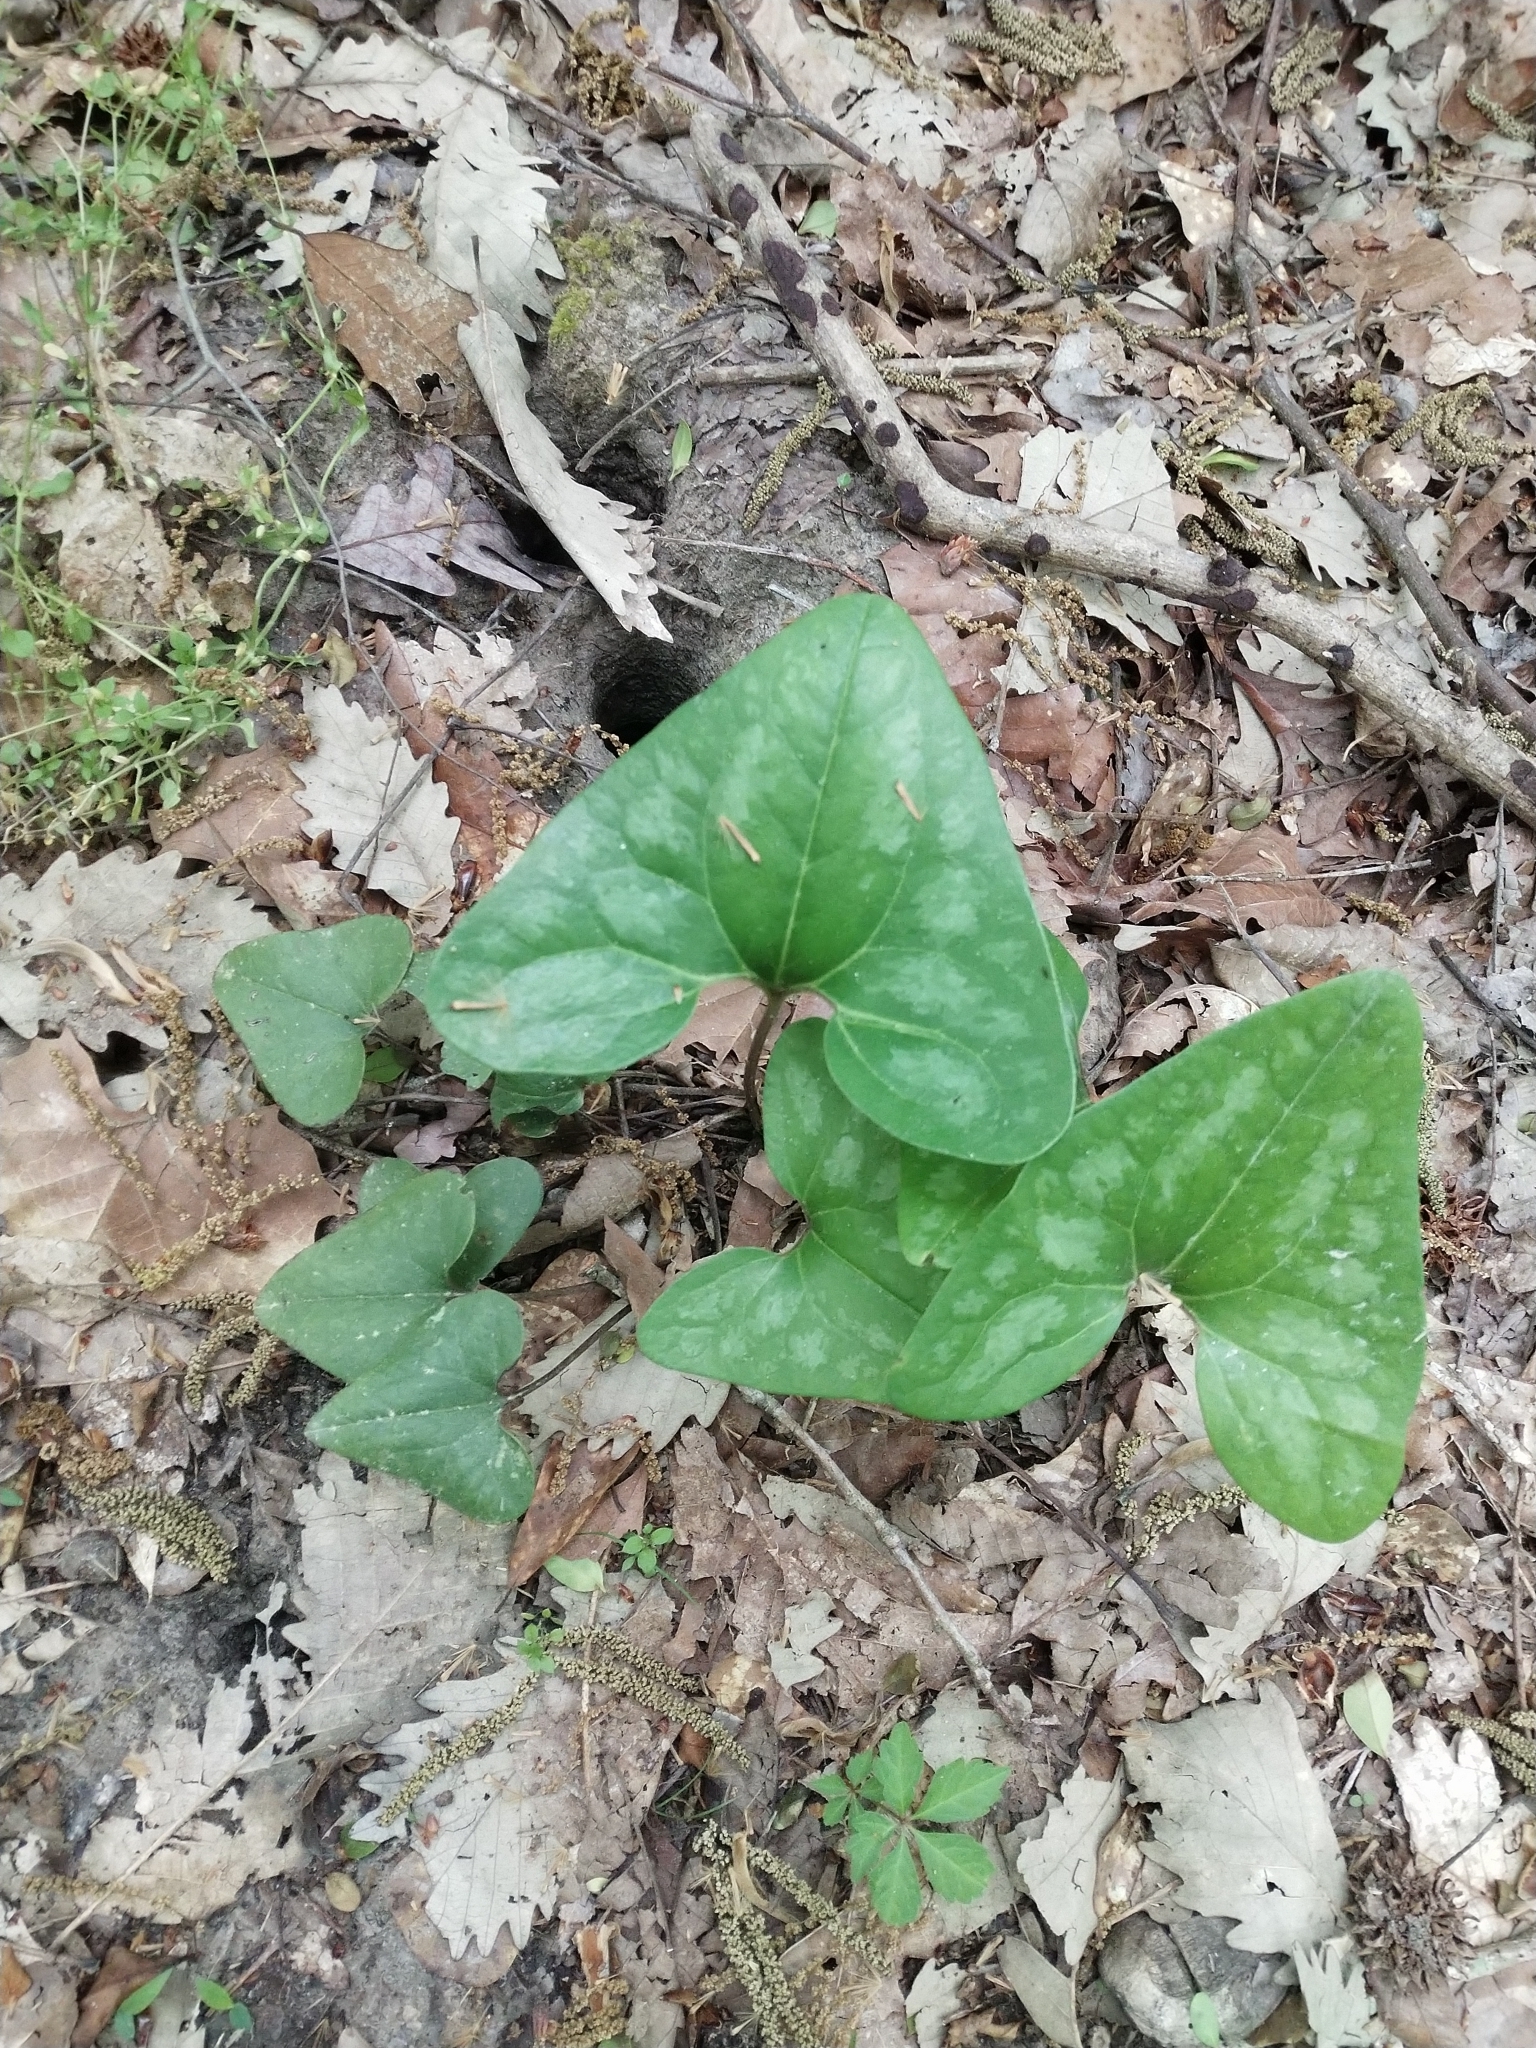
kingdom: Plantae
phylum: Tracheophyta
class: Magnoliopsida
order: Piperales
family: Aristolochiaceae
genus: Hexastylis
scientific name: Hexastylis arifolia
